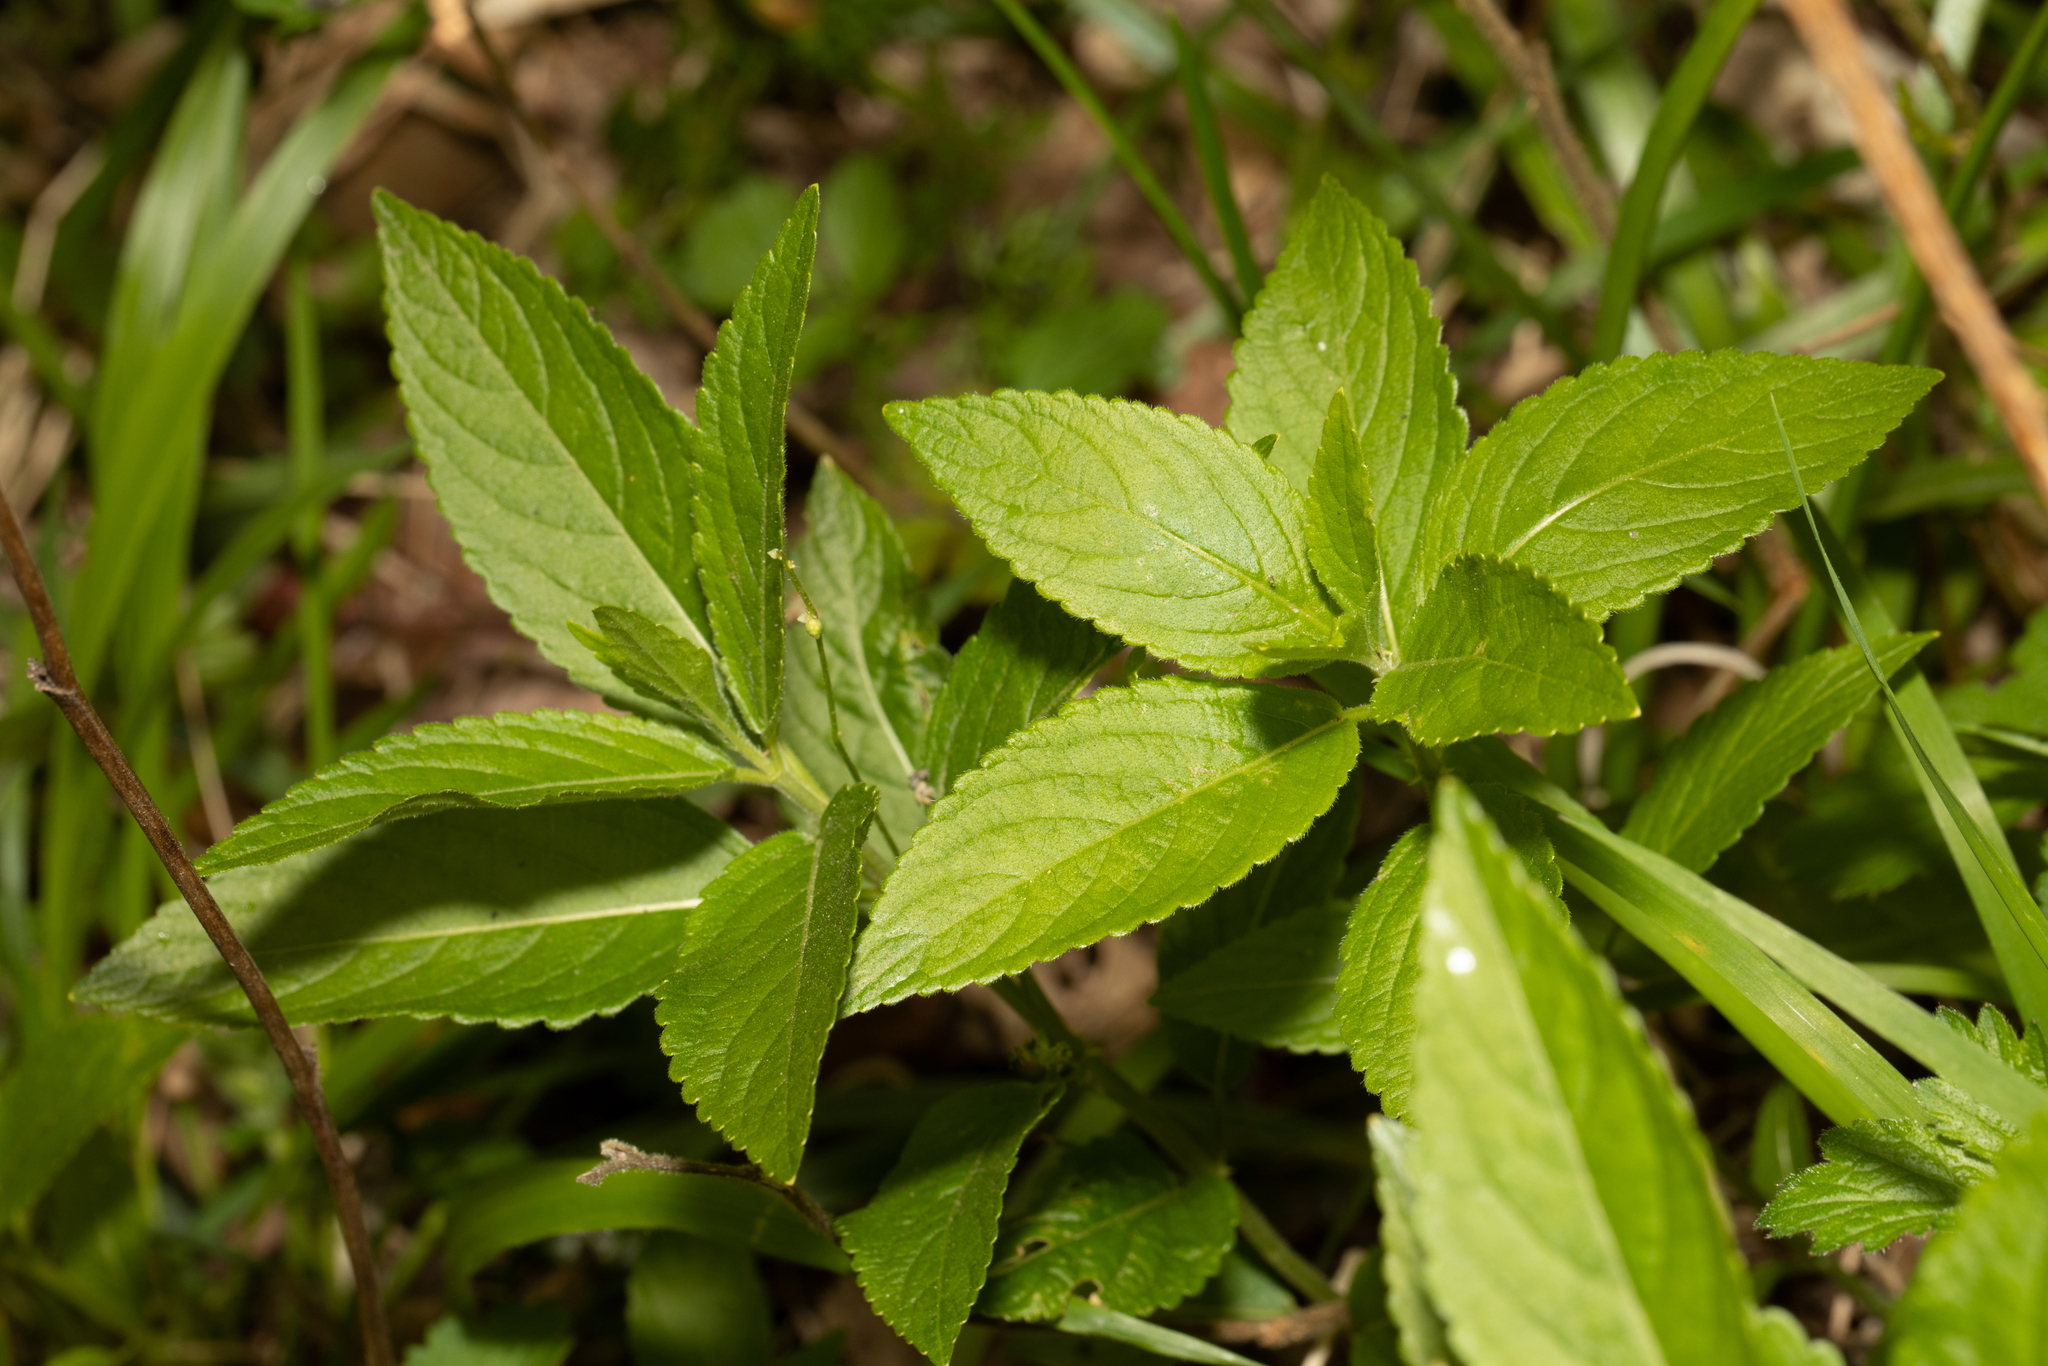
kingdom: Plantae
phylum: Tracheophyta
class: Magnoliopsida
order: Malpighiales
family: Euphorbiaceae
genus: Mercurialis
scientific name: Mercurialis perennis
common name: Dog mercury
